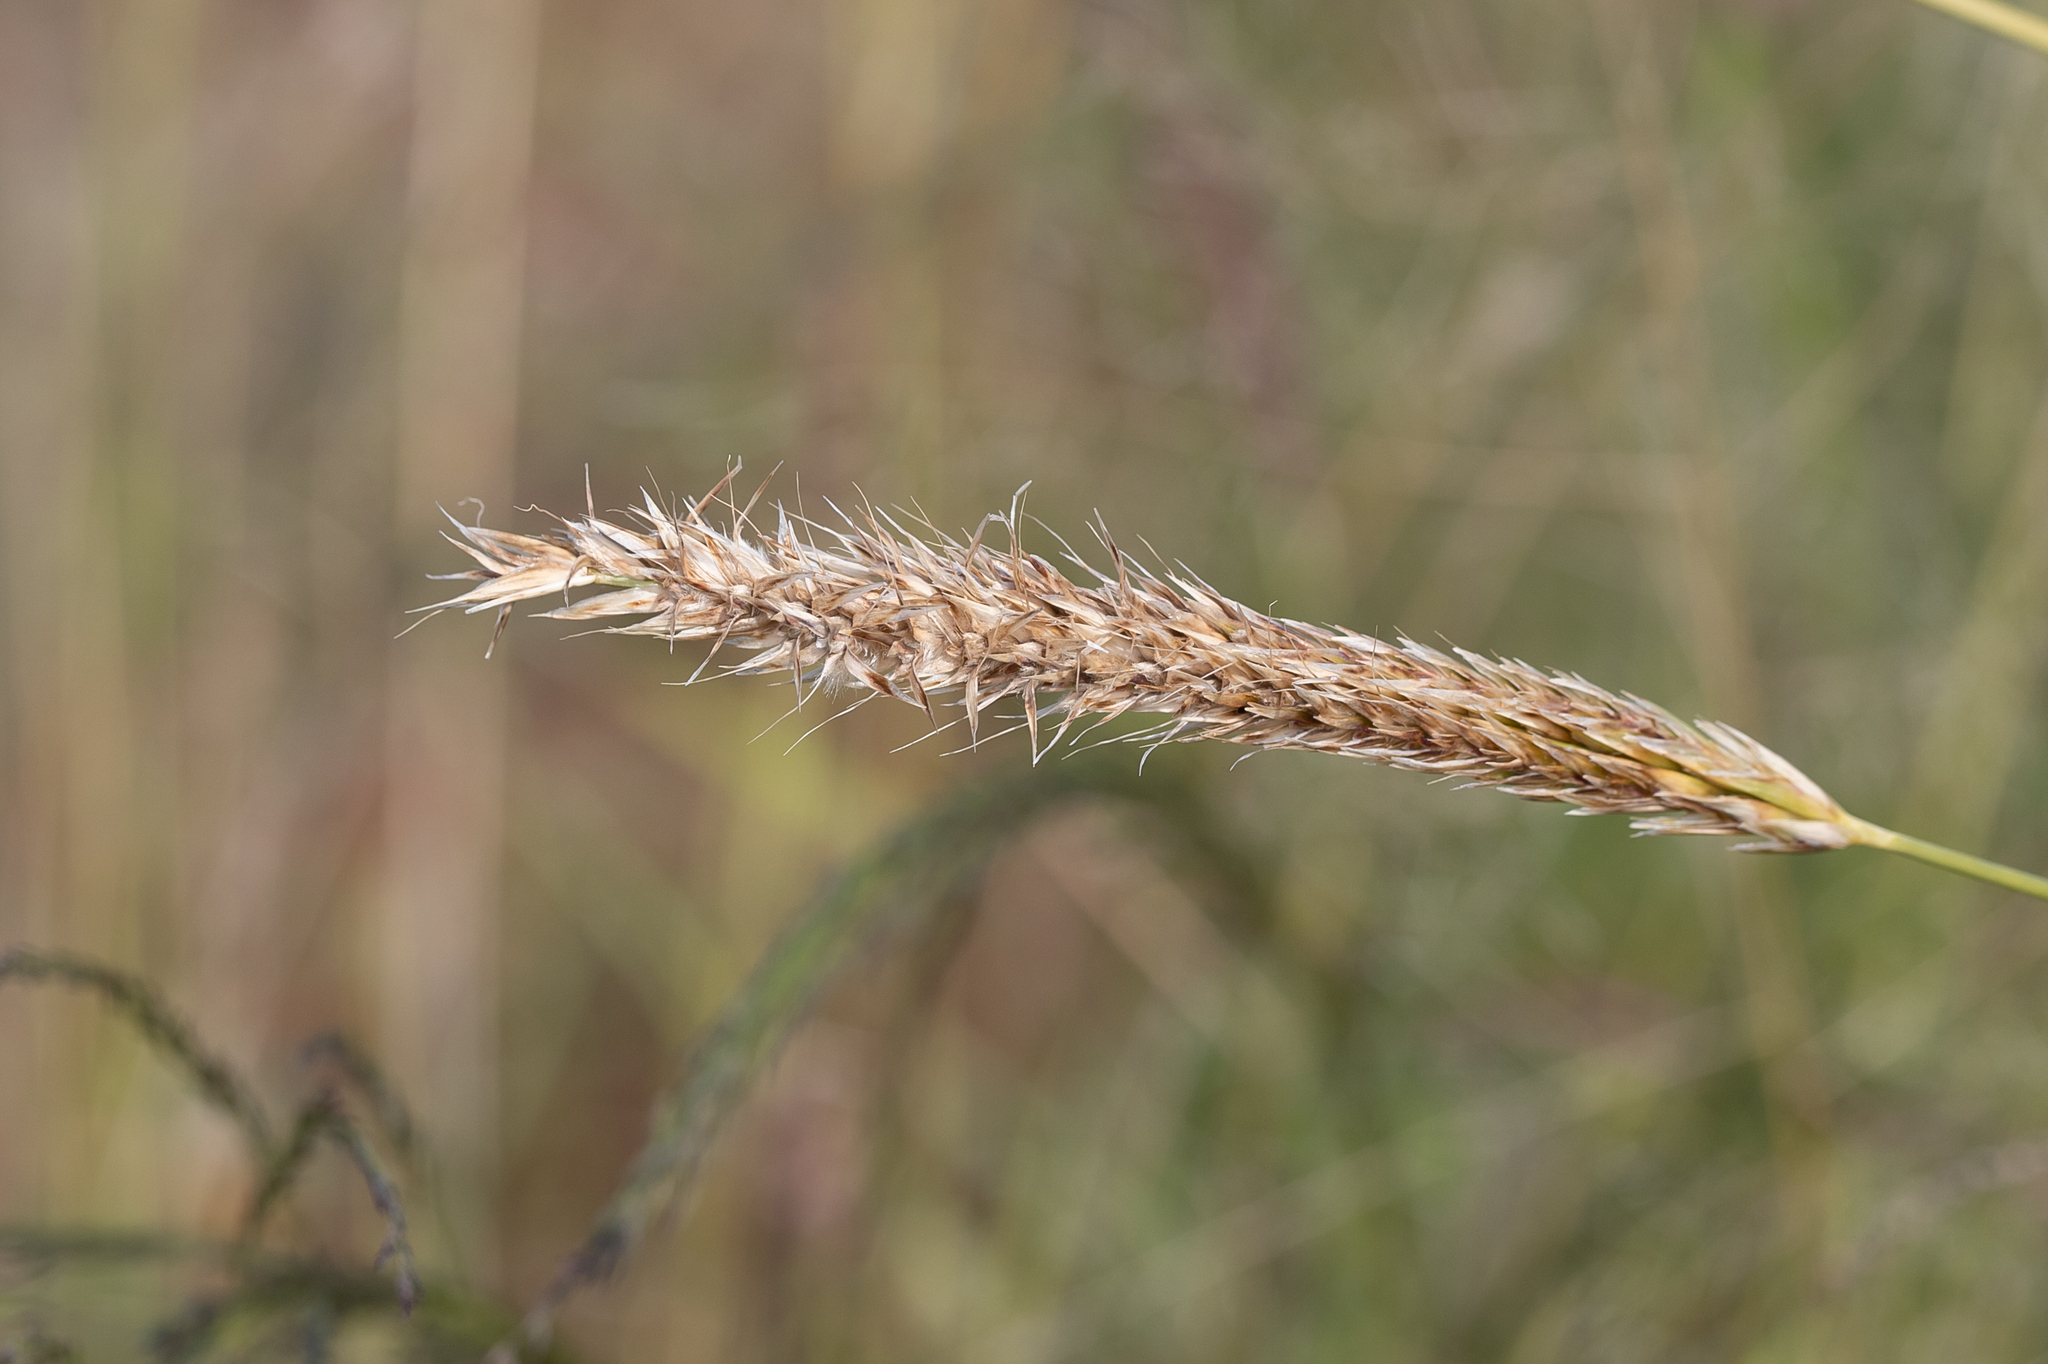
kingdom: Plantae
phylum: Tracheophyta
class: Liliopsida
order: Poales
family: Poaceae
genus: Astrebla
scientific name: Astrebla lappacea
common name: Curly mitchell grass
